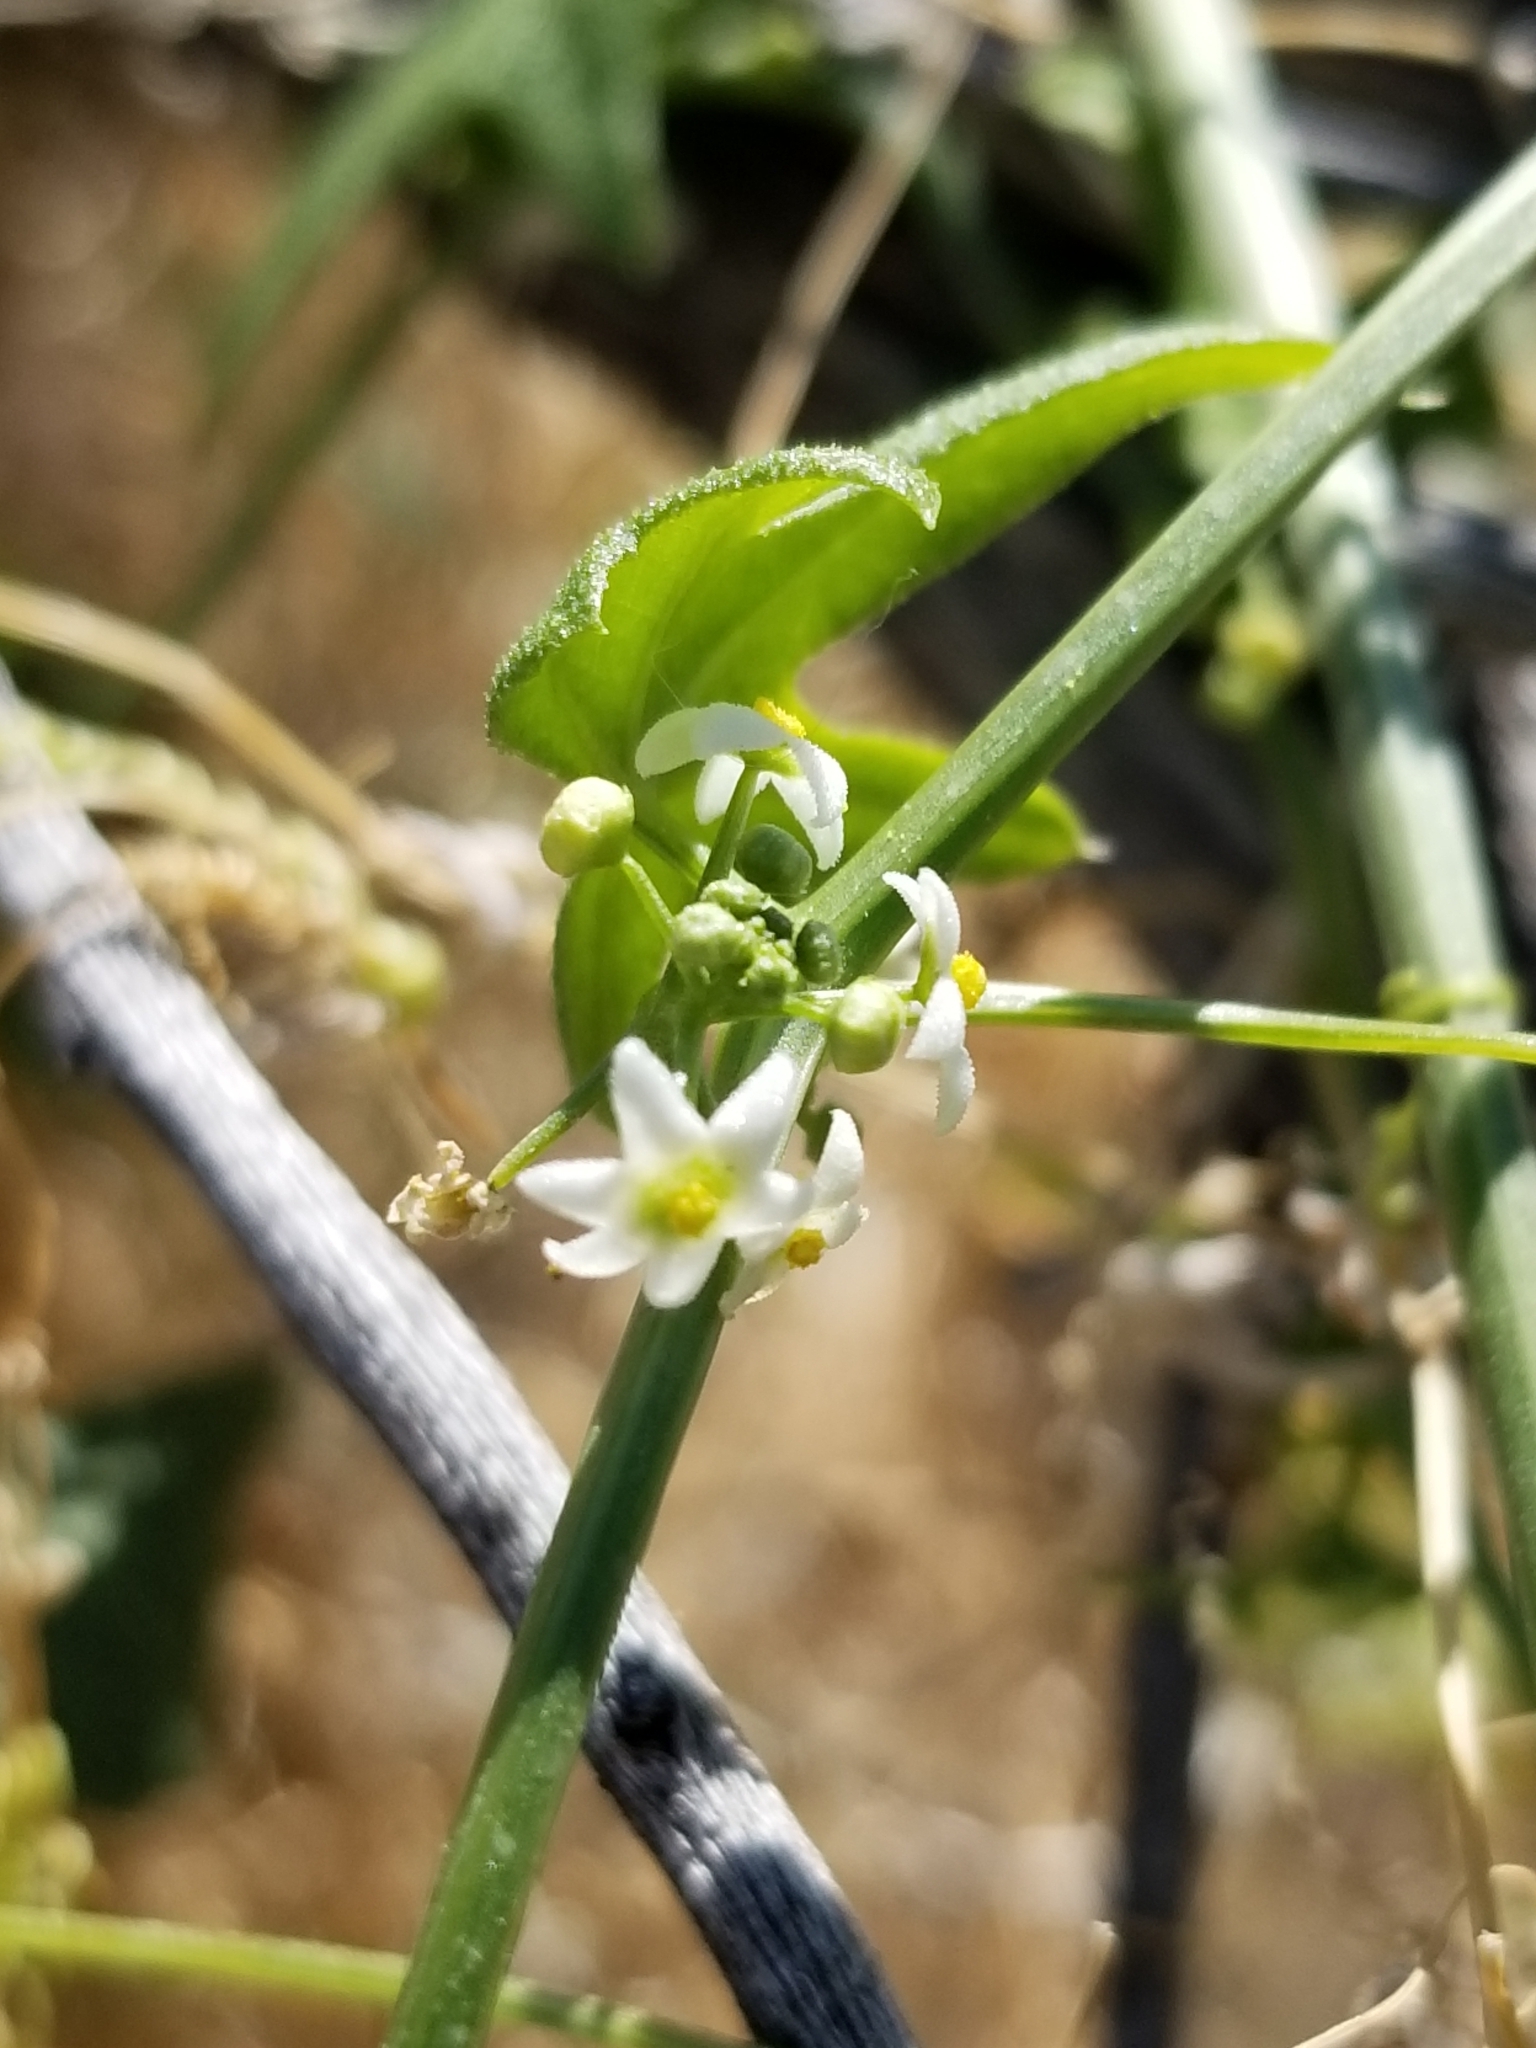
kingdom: Plantae
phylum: Tracheophyta
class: Magnoliopsida
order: Cucurbitales
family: Cucurbitaceae
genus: Echinopepon
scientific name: Echinopepon bigelovii
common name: Desert starvine
